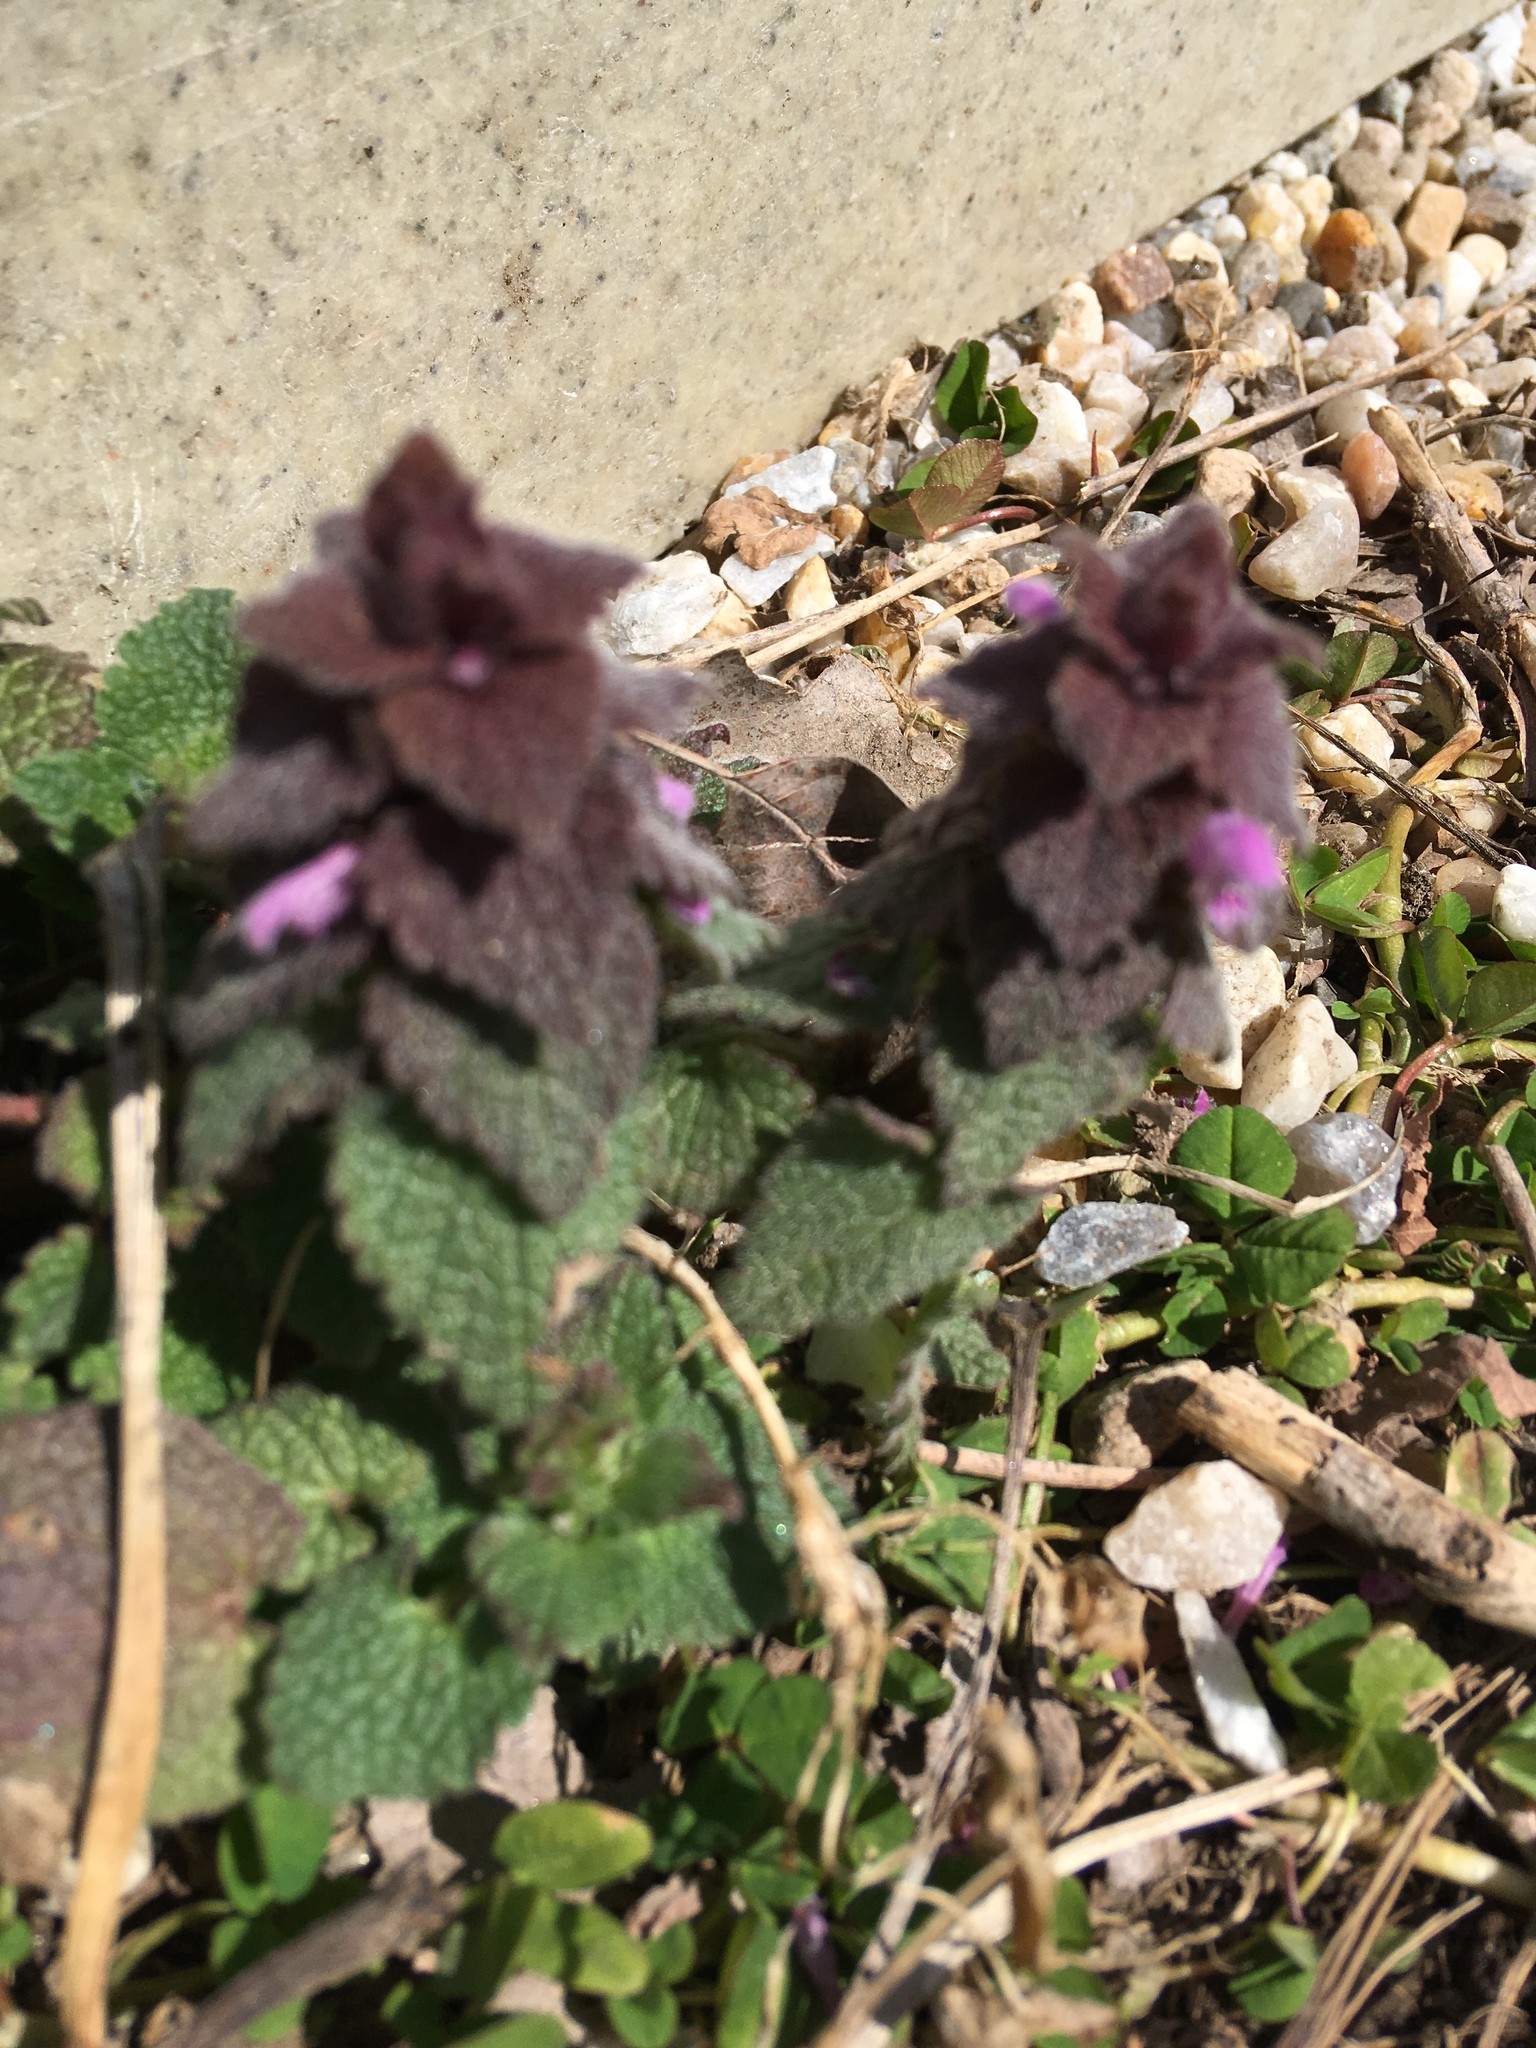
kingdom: Plantae
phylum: Tracheophyta
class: Magnoliopsida
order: Lamiales
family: Lamiaceae
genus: Lamium
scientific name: Lamium purpureum
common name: Red dead-nettle
